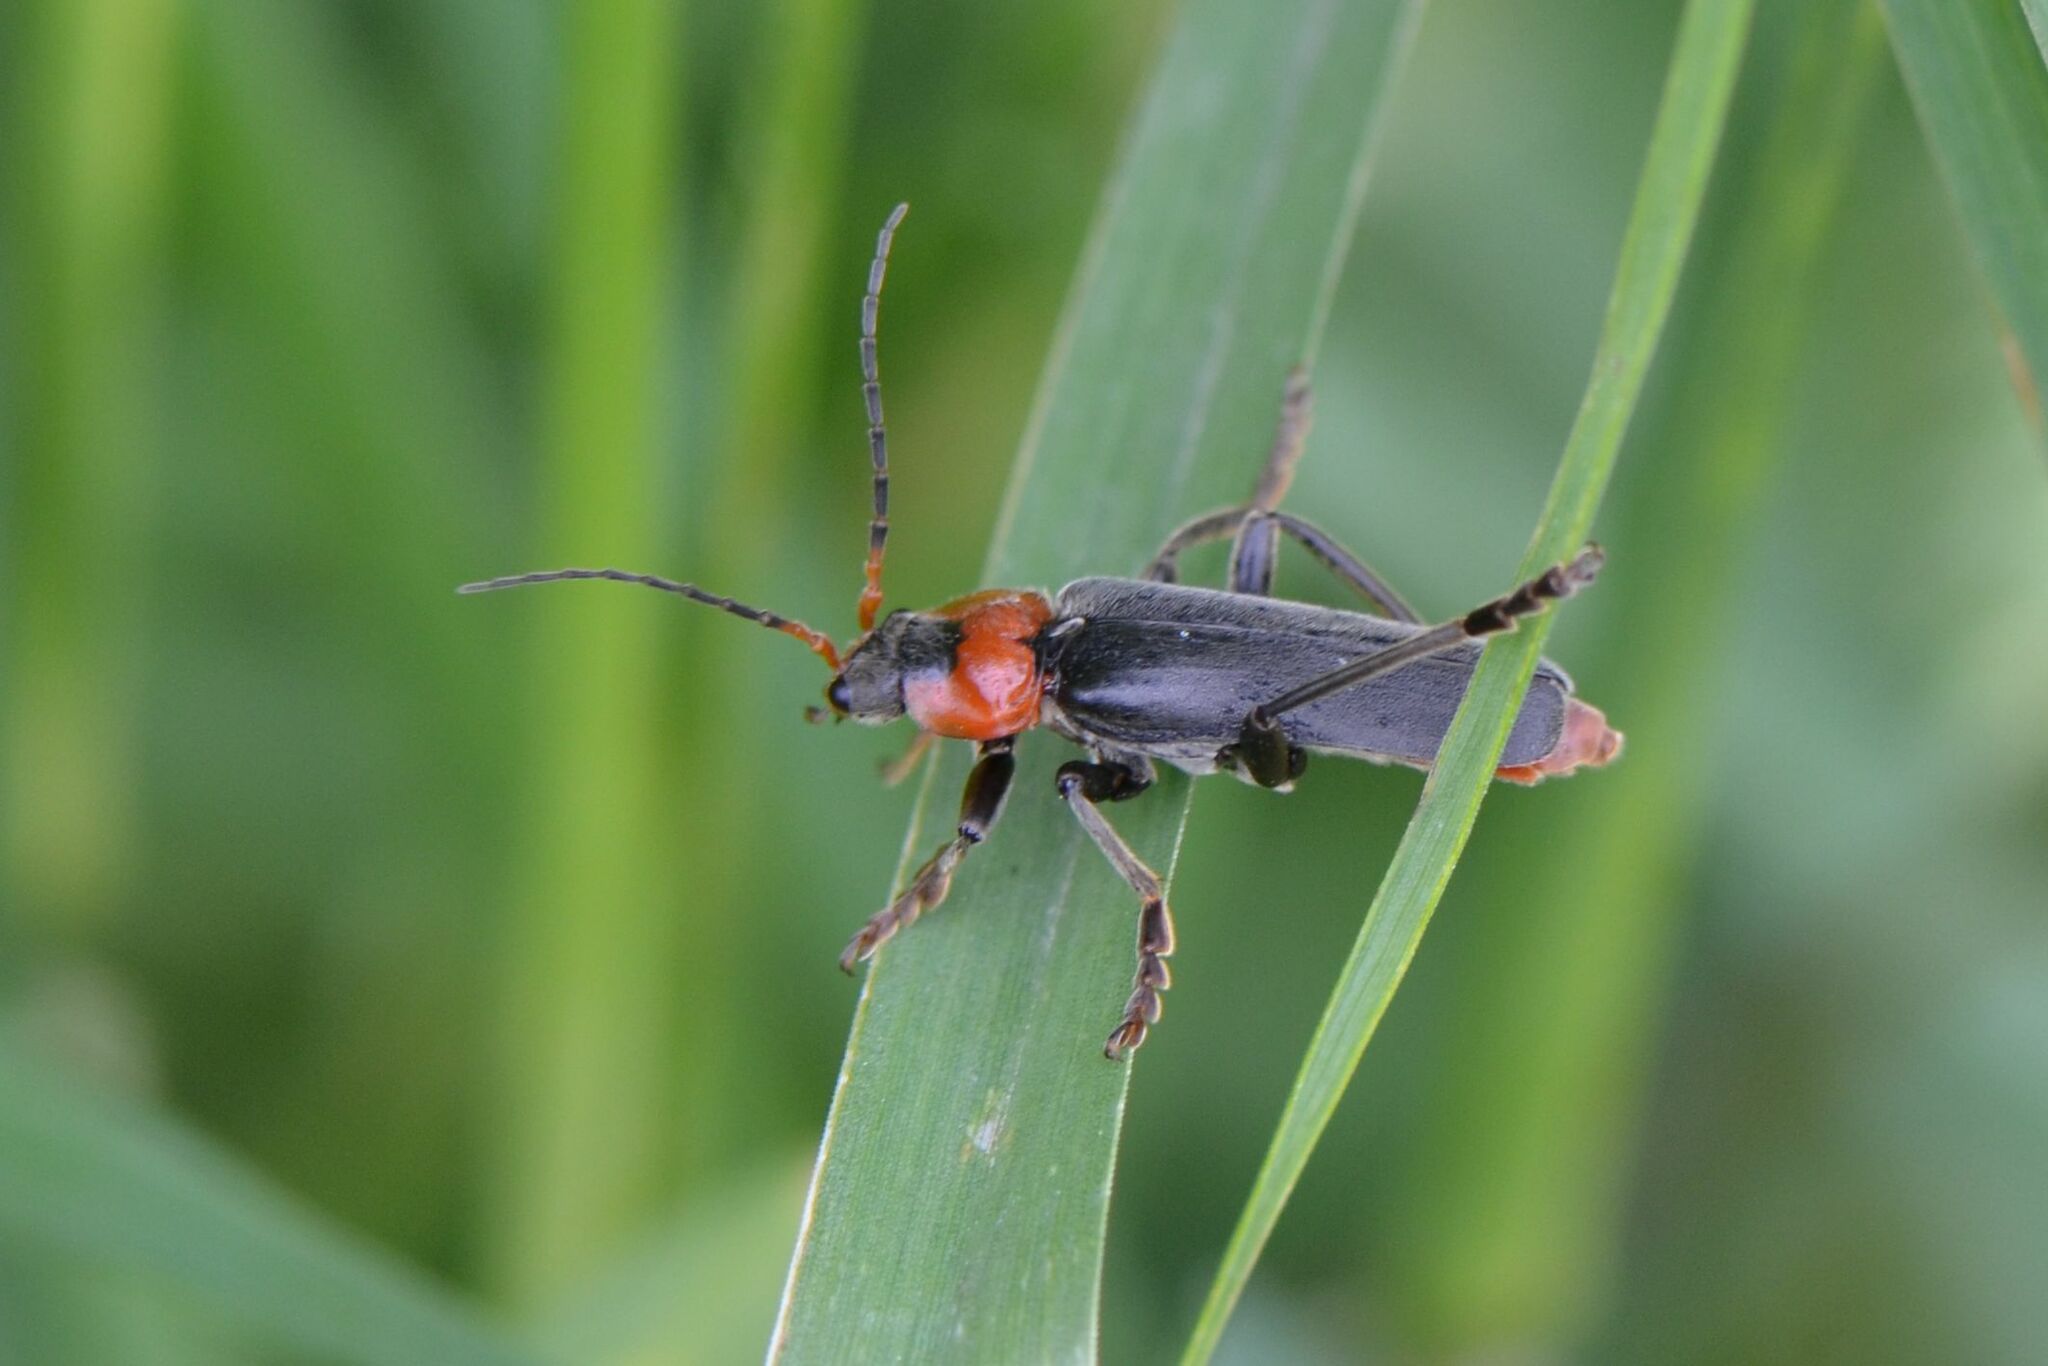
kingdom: Animalia
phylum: Arthropoda
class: Insecta
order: Coleoptera
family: Cantharidae
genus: Cantharis
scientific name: Cantharis fusca
